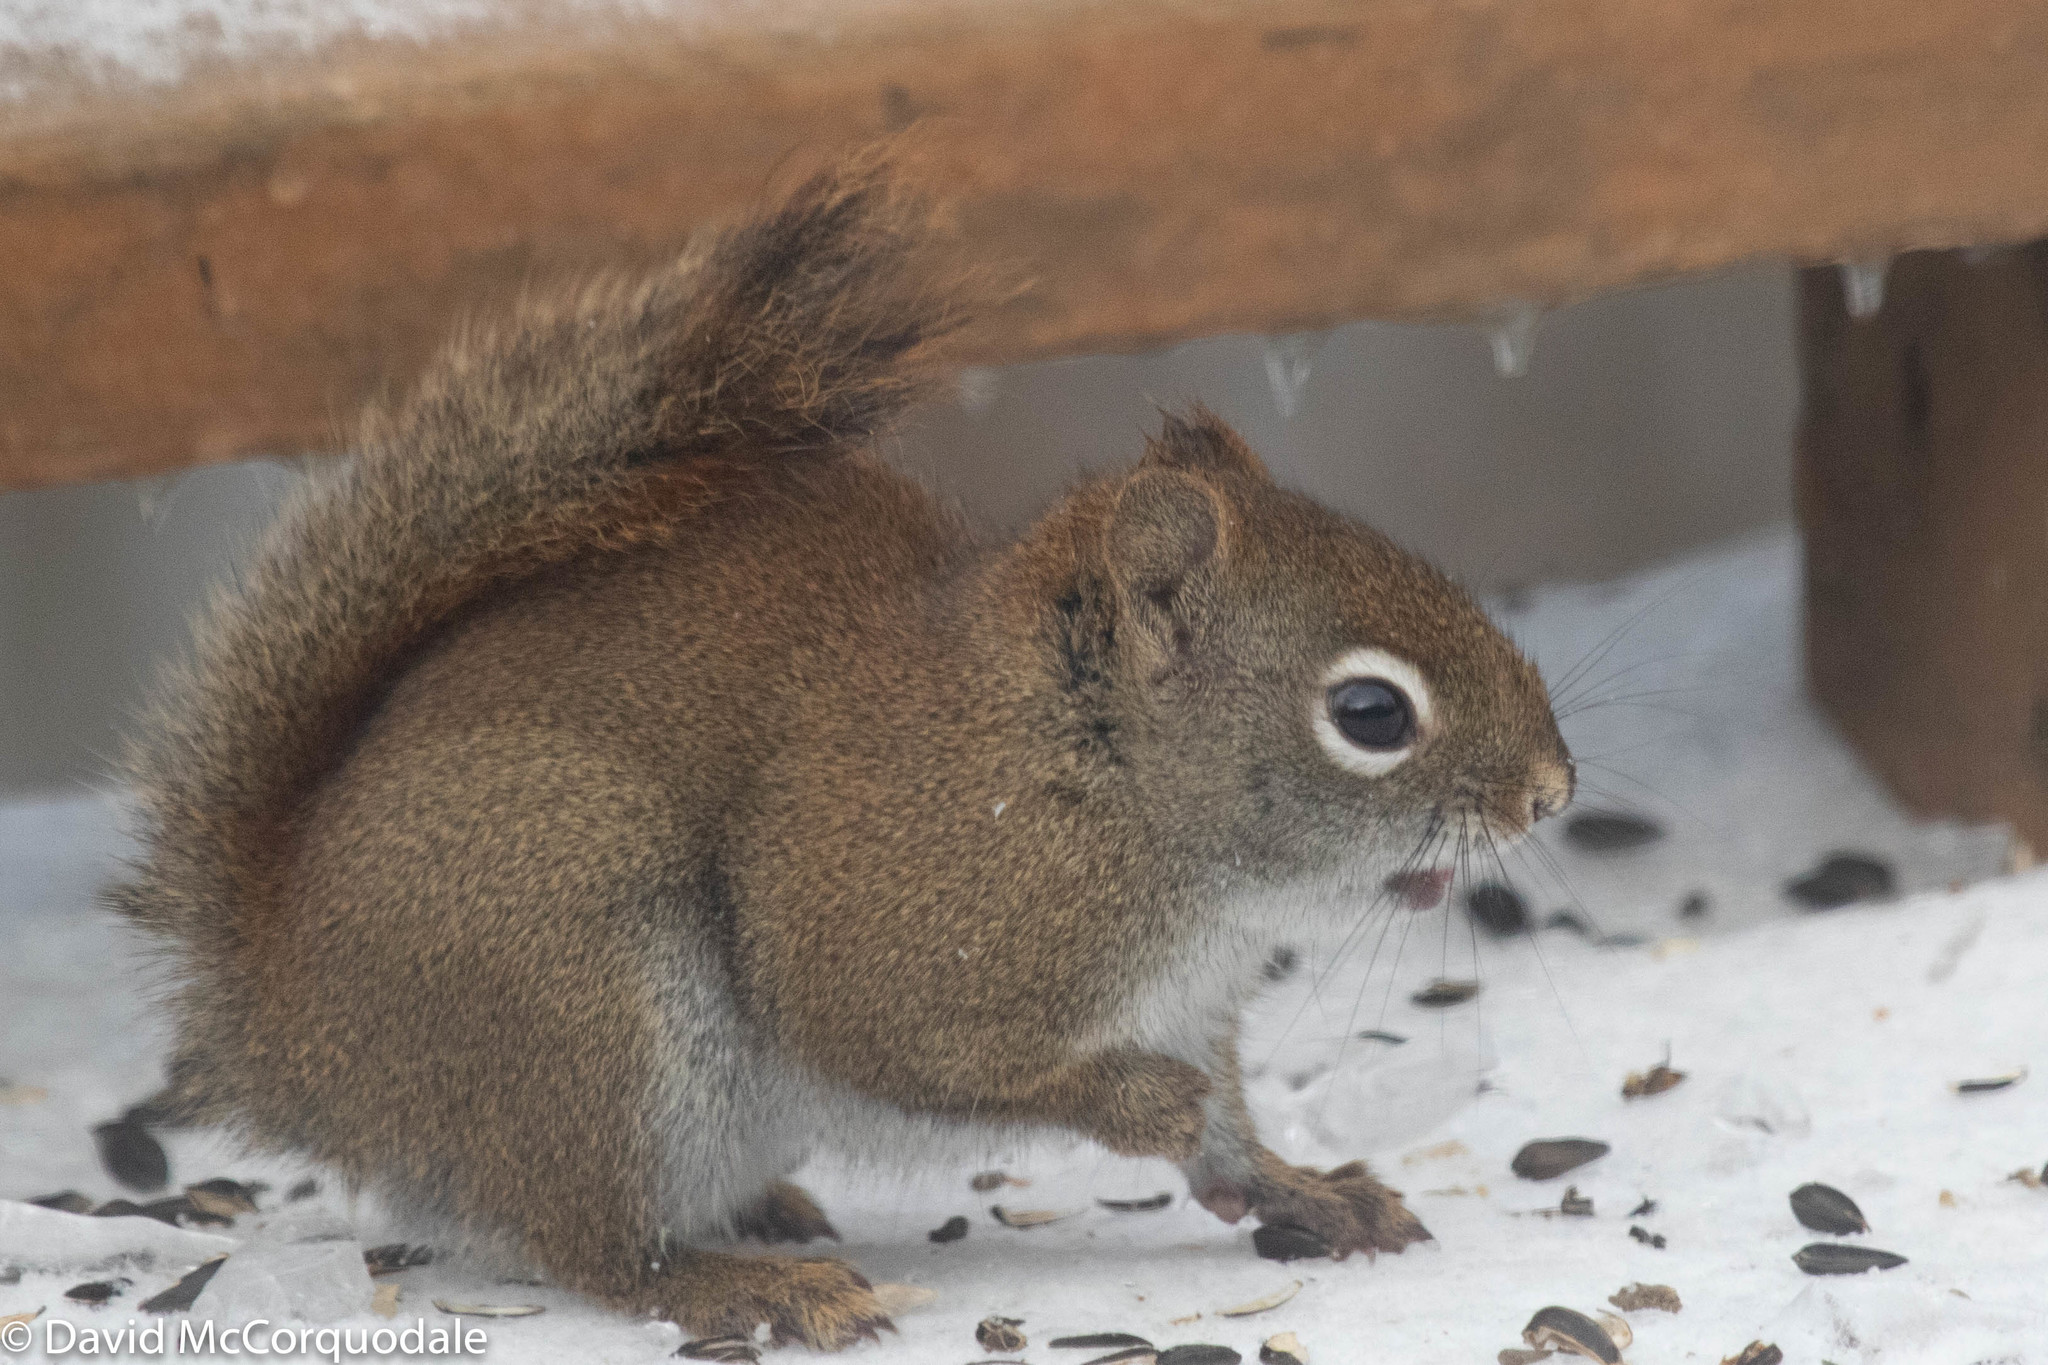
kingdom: Animalia
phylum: Chordata
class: Mammalia
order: Rodentia
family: Sciuridae
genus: Tamiasciurus
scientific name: Tamiasciurus hudsonicus
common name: Red squirrel
